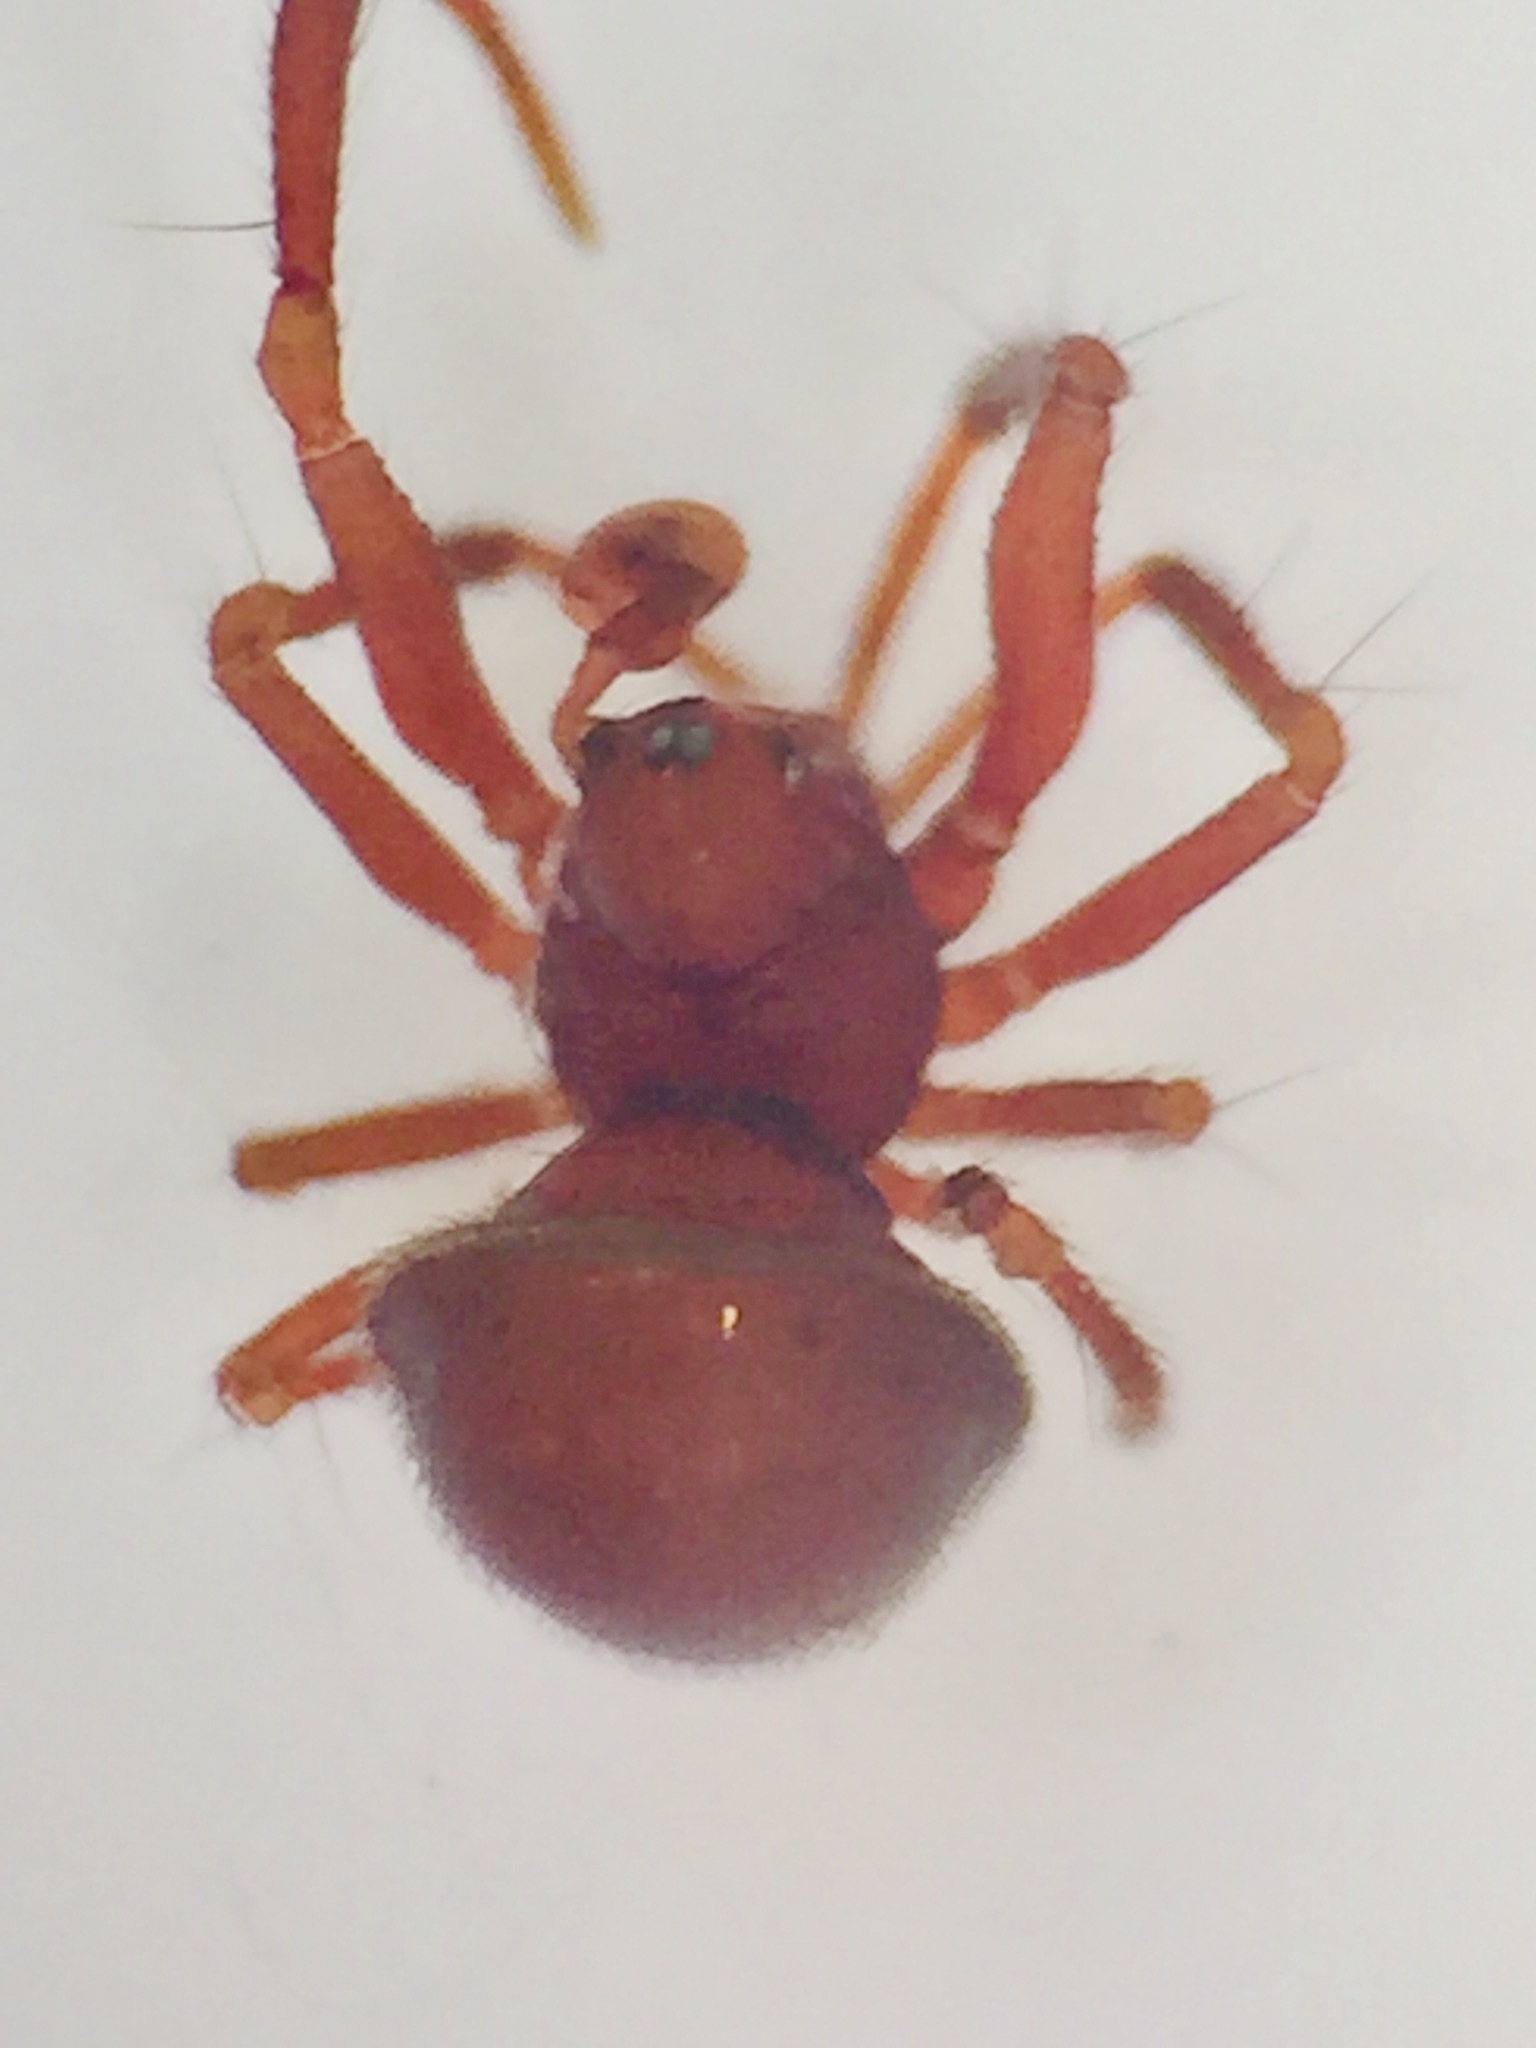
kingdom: Animalia
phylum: Arthropoda
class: Arachnida
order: Araneae
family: Anapidae
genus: Novanapis
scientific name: Novanapis spinipes
